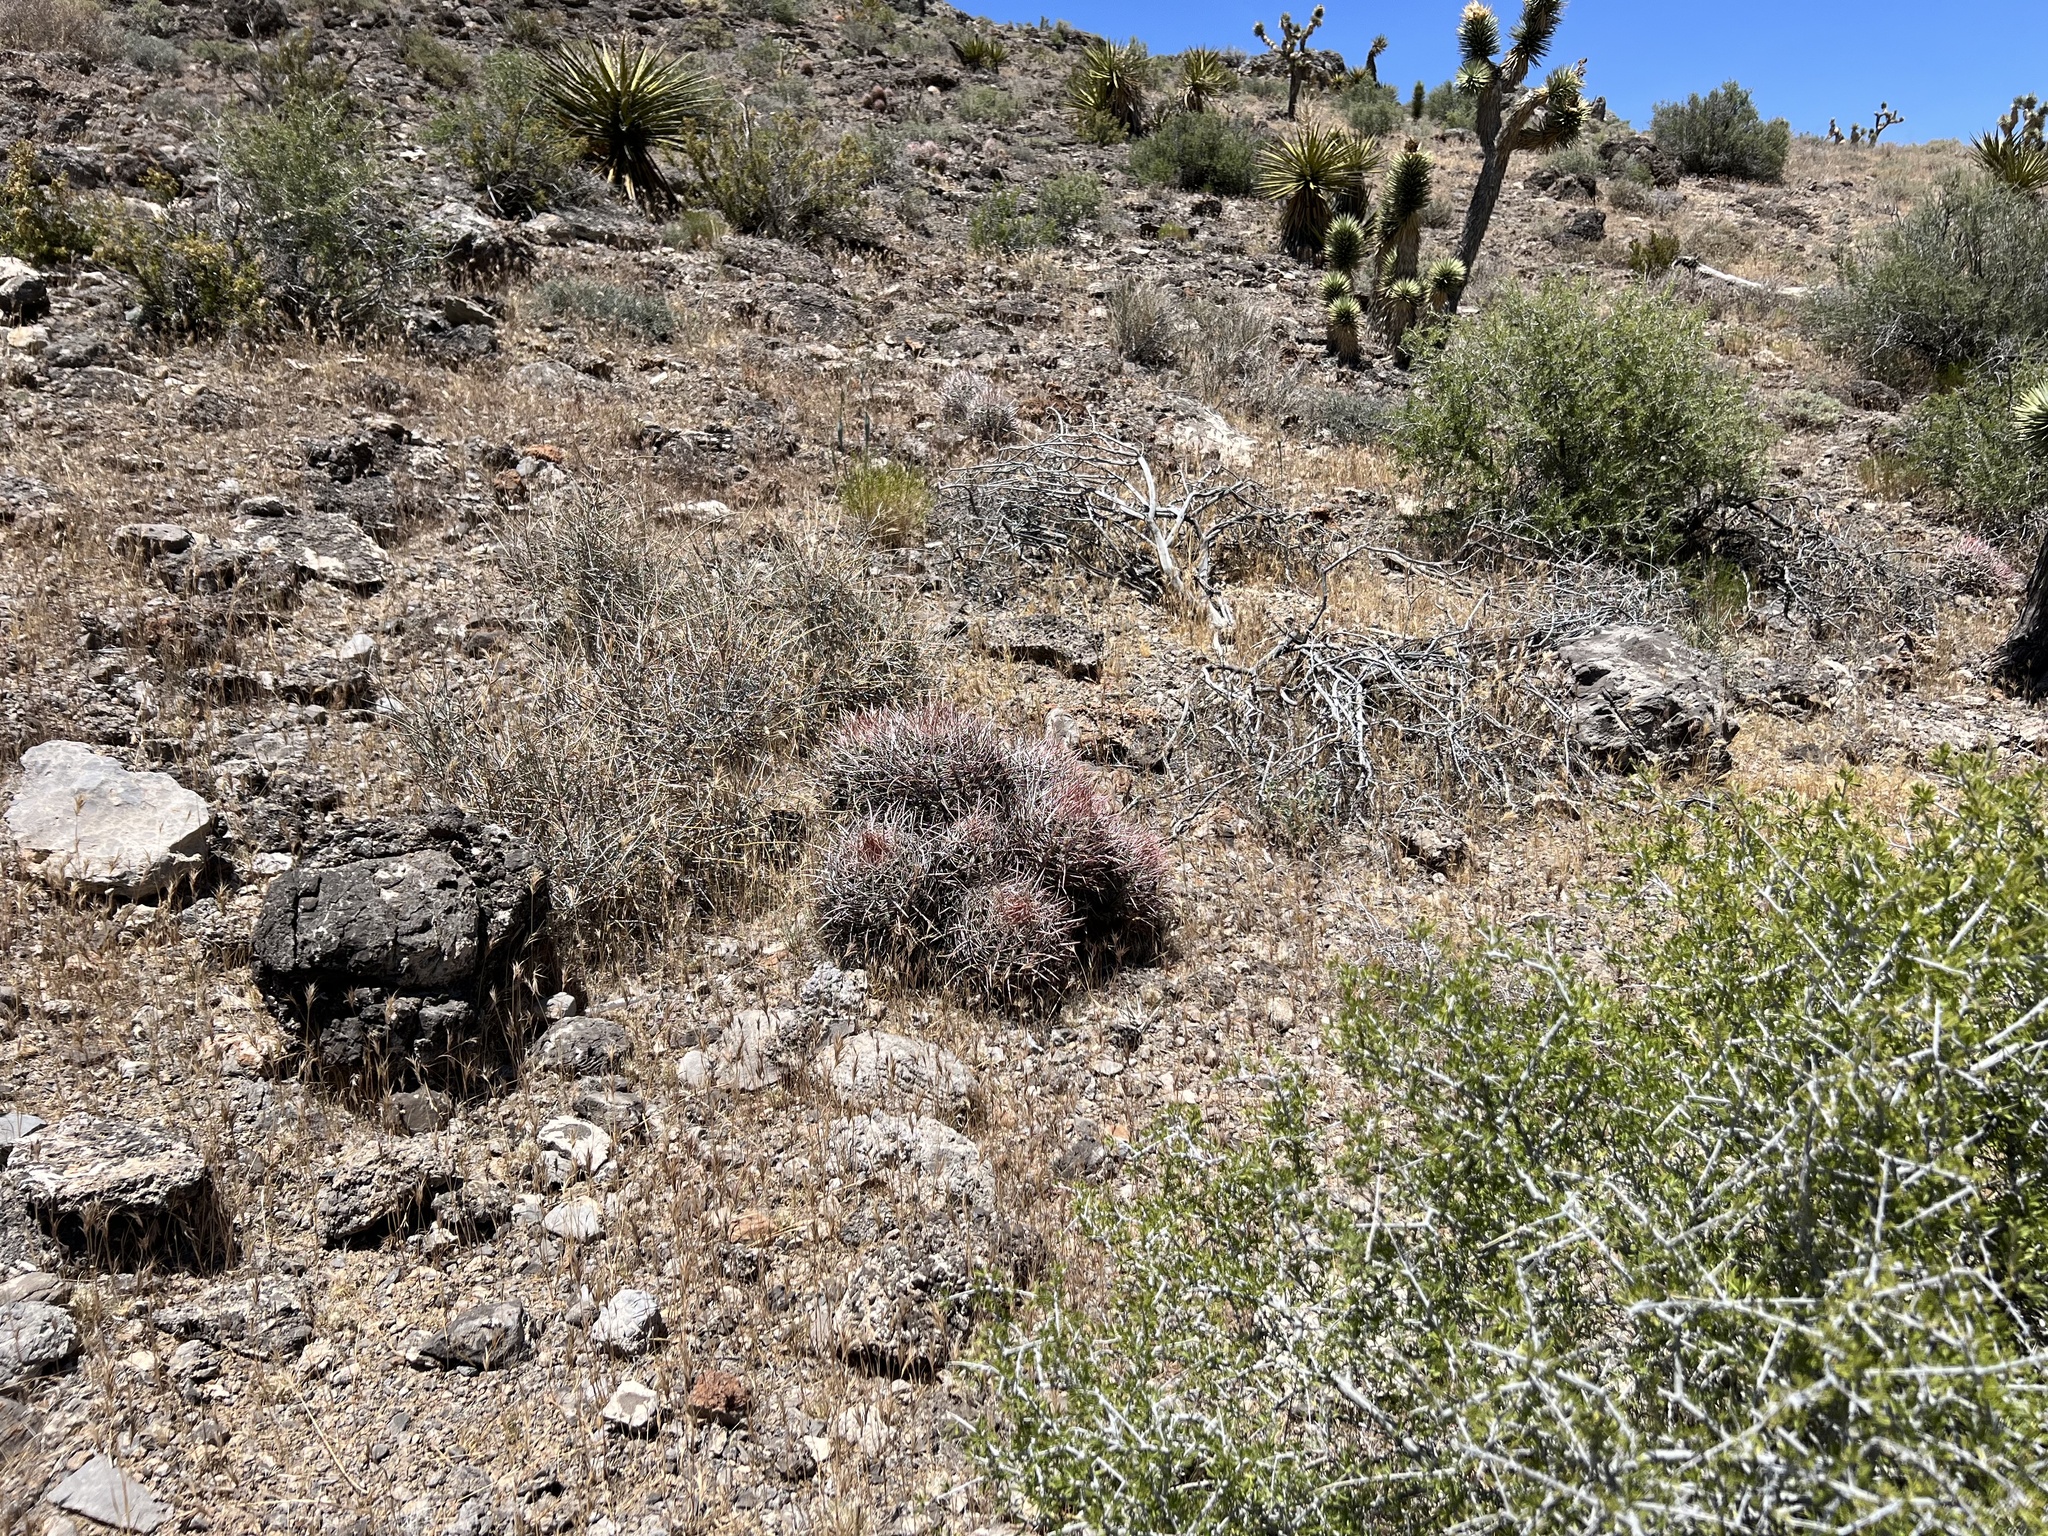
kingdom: Plantae
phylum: Tracheophyta
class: Magnoliopsida
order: Caryophyllales
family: Cactaceae
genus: Echinocactus
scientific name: Echinocactus polycephalus
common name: Cottontop cactus
